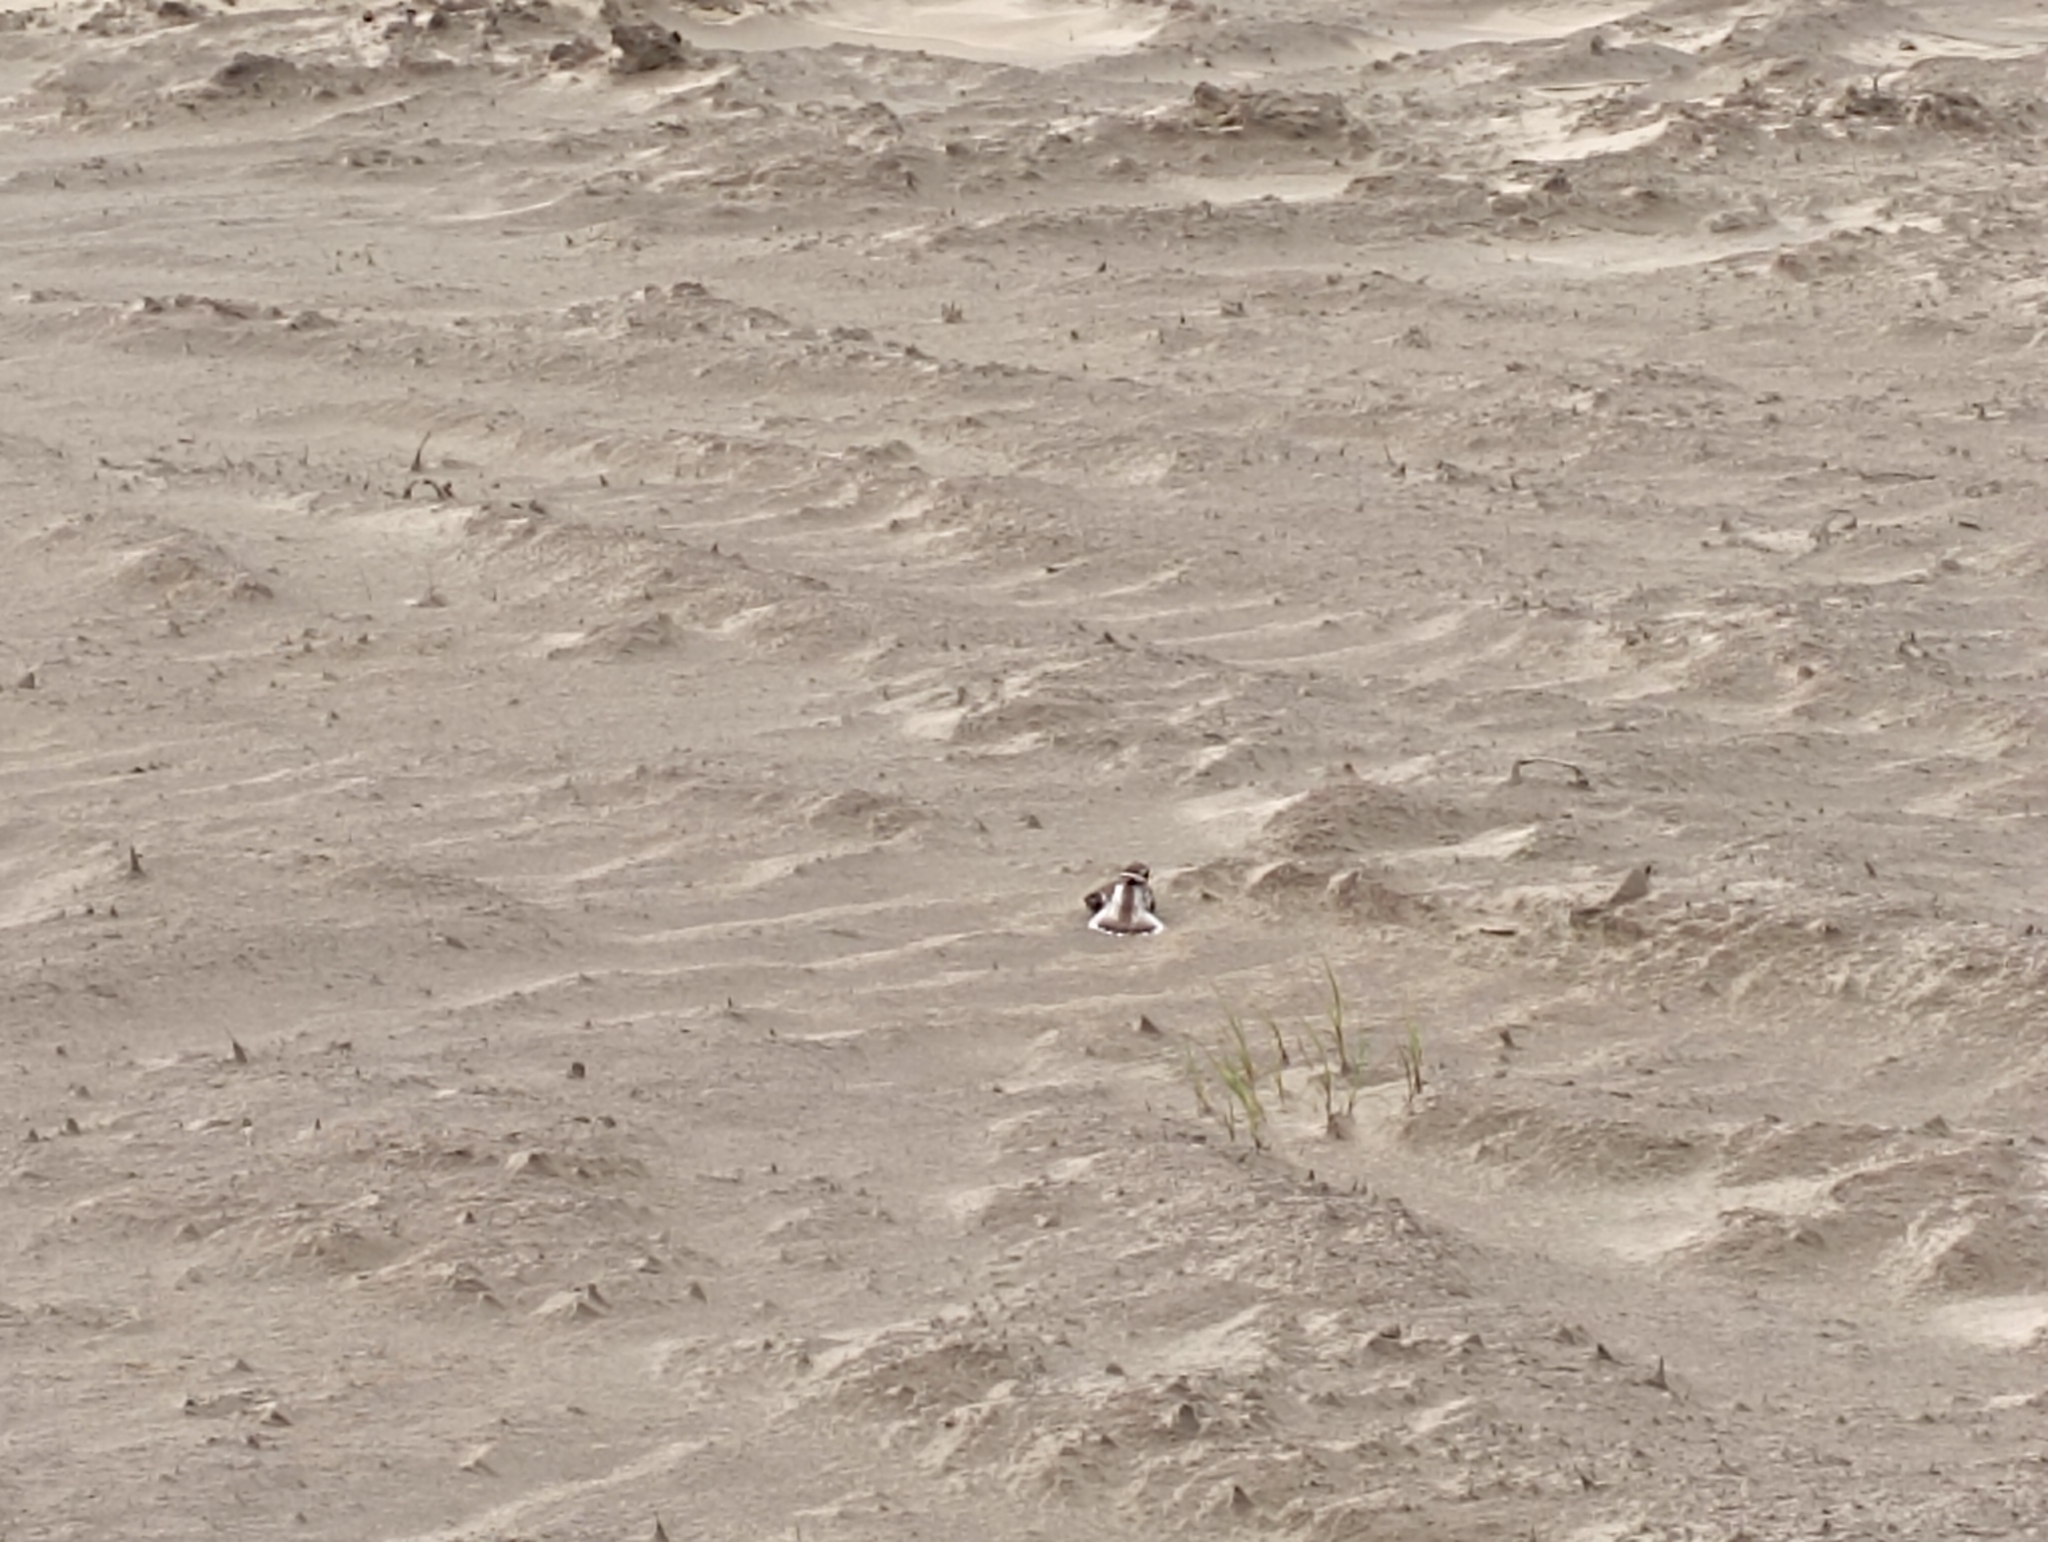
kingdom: Animalia
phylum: Chordata
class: Aves
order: Charadriiformes
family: Charadriidae
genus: Charadrius
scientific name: Charadrius hiaticula
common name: Common ringed plover
